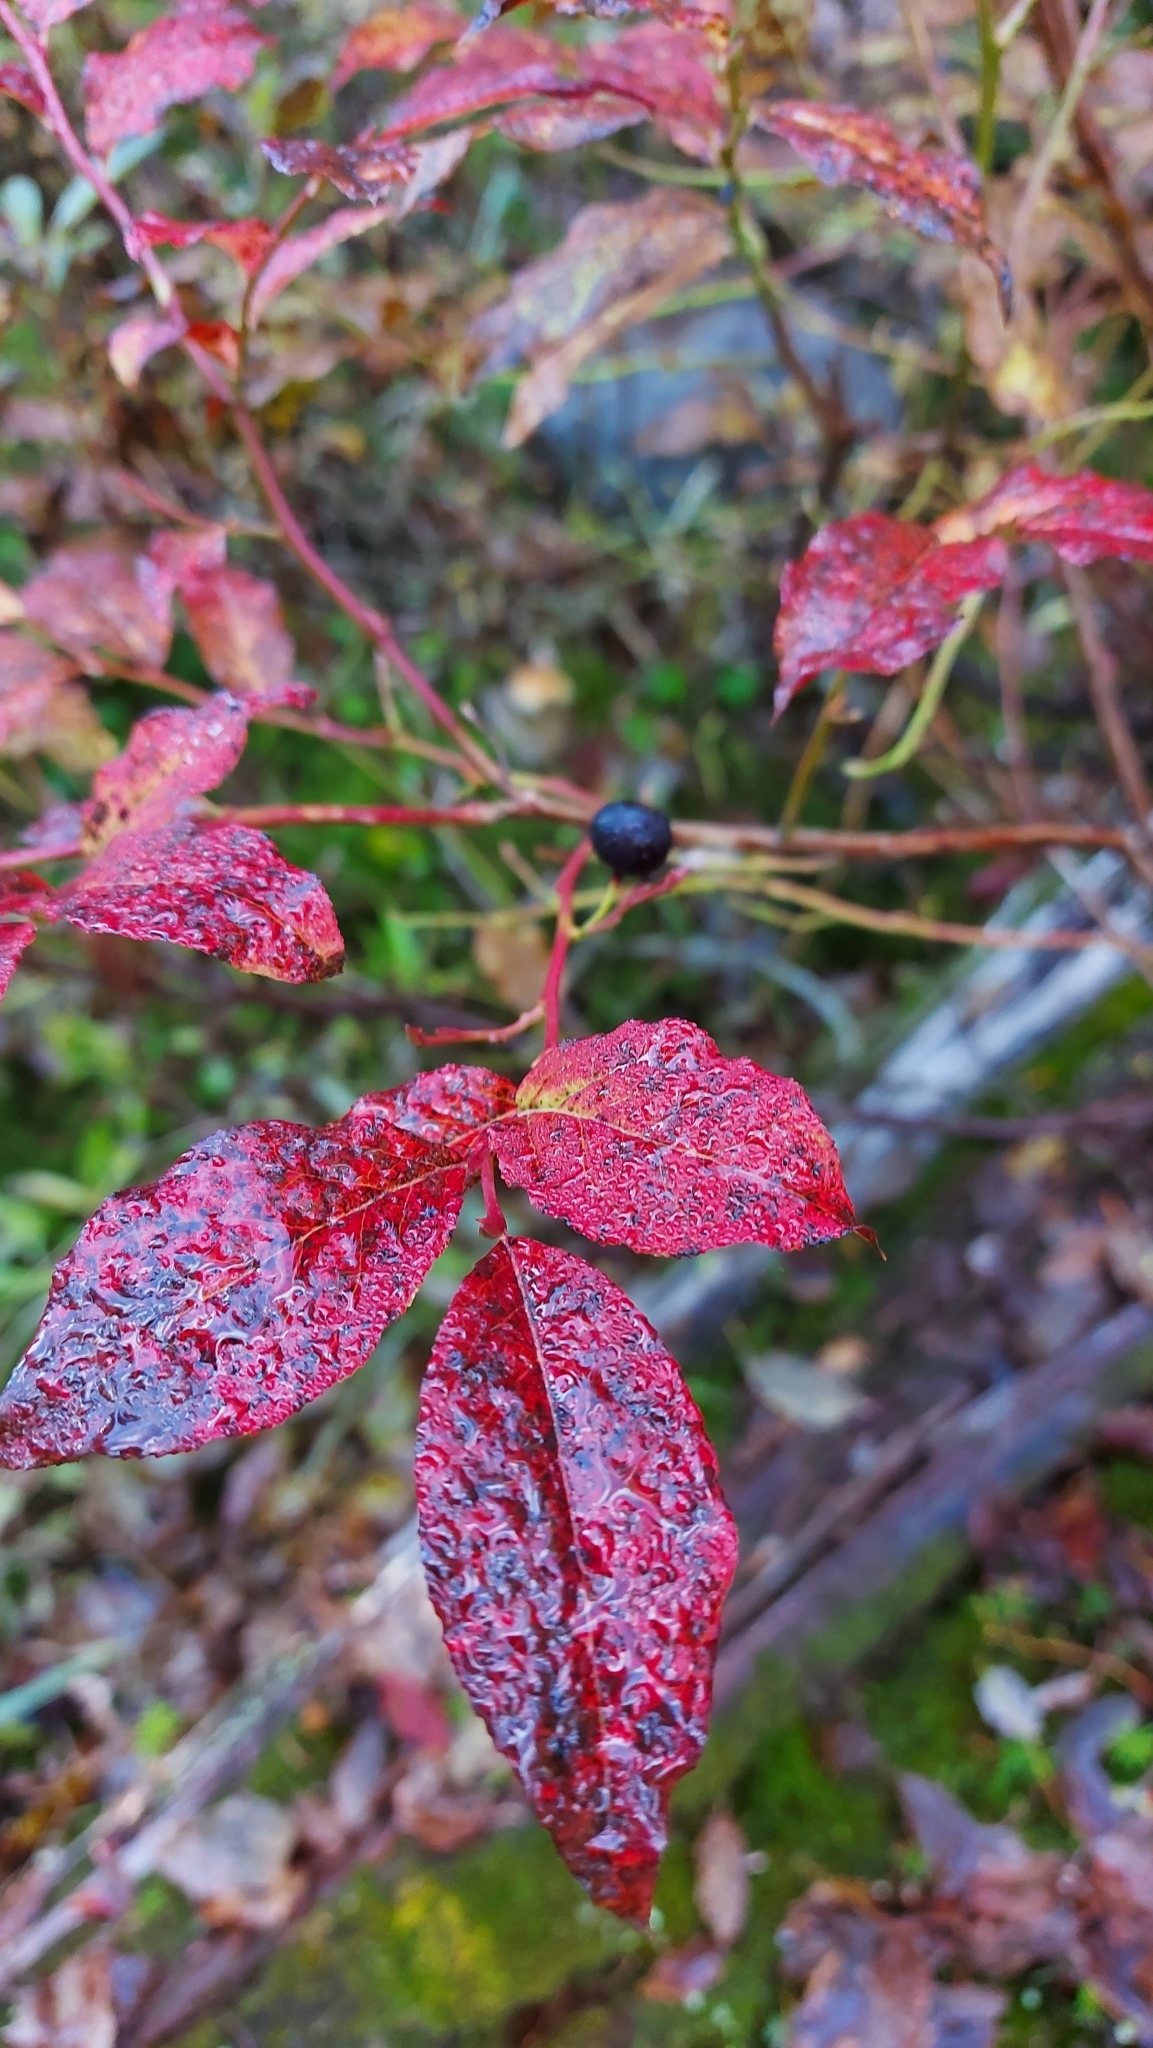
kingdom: Plantae
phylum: Tracheophyta
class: Magnoliopsida
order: Ericales
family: Ericaceae
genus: Vaccinium
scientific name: Vaccinium membranaceum
